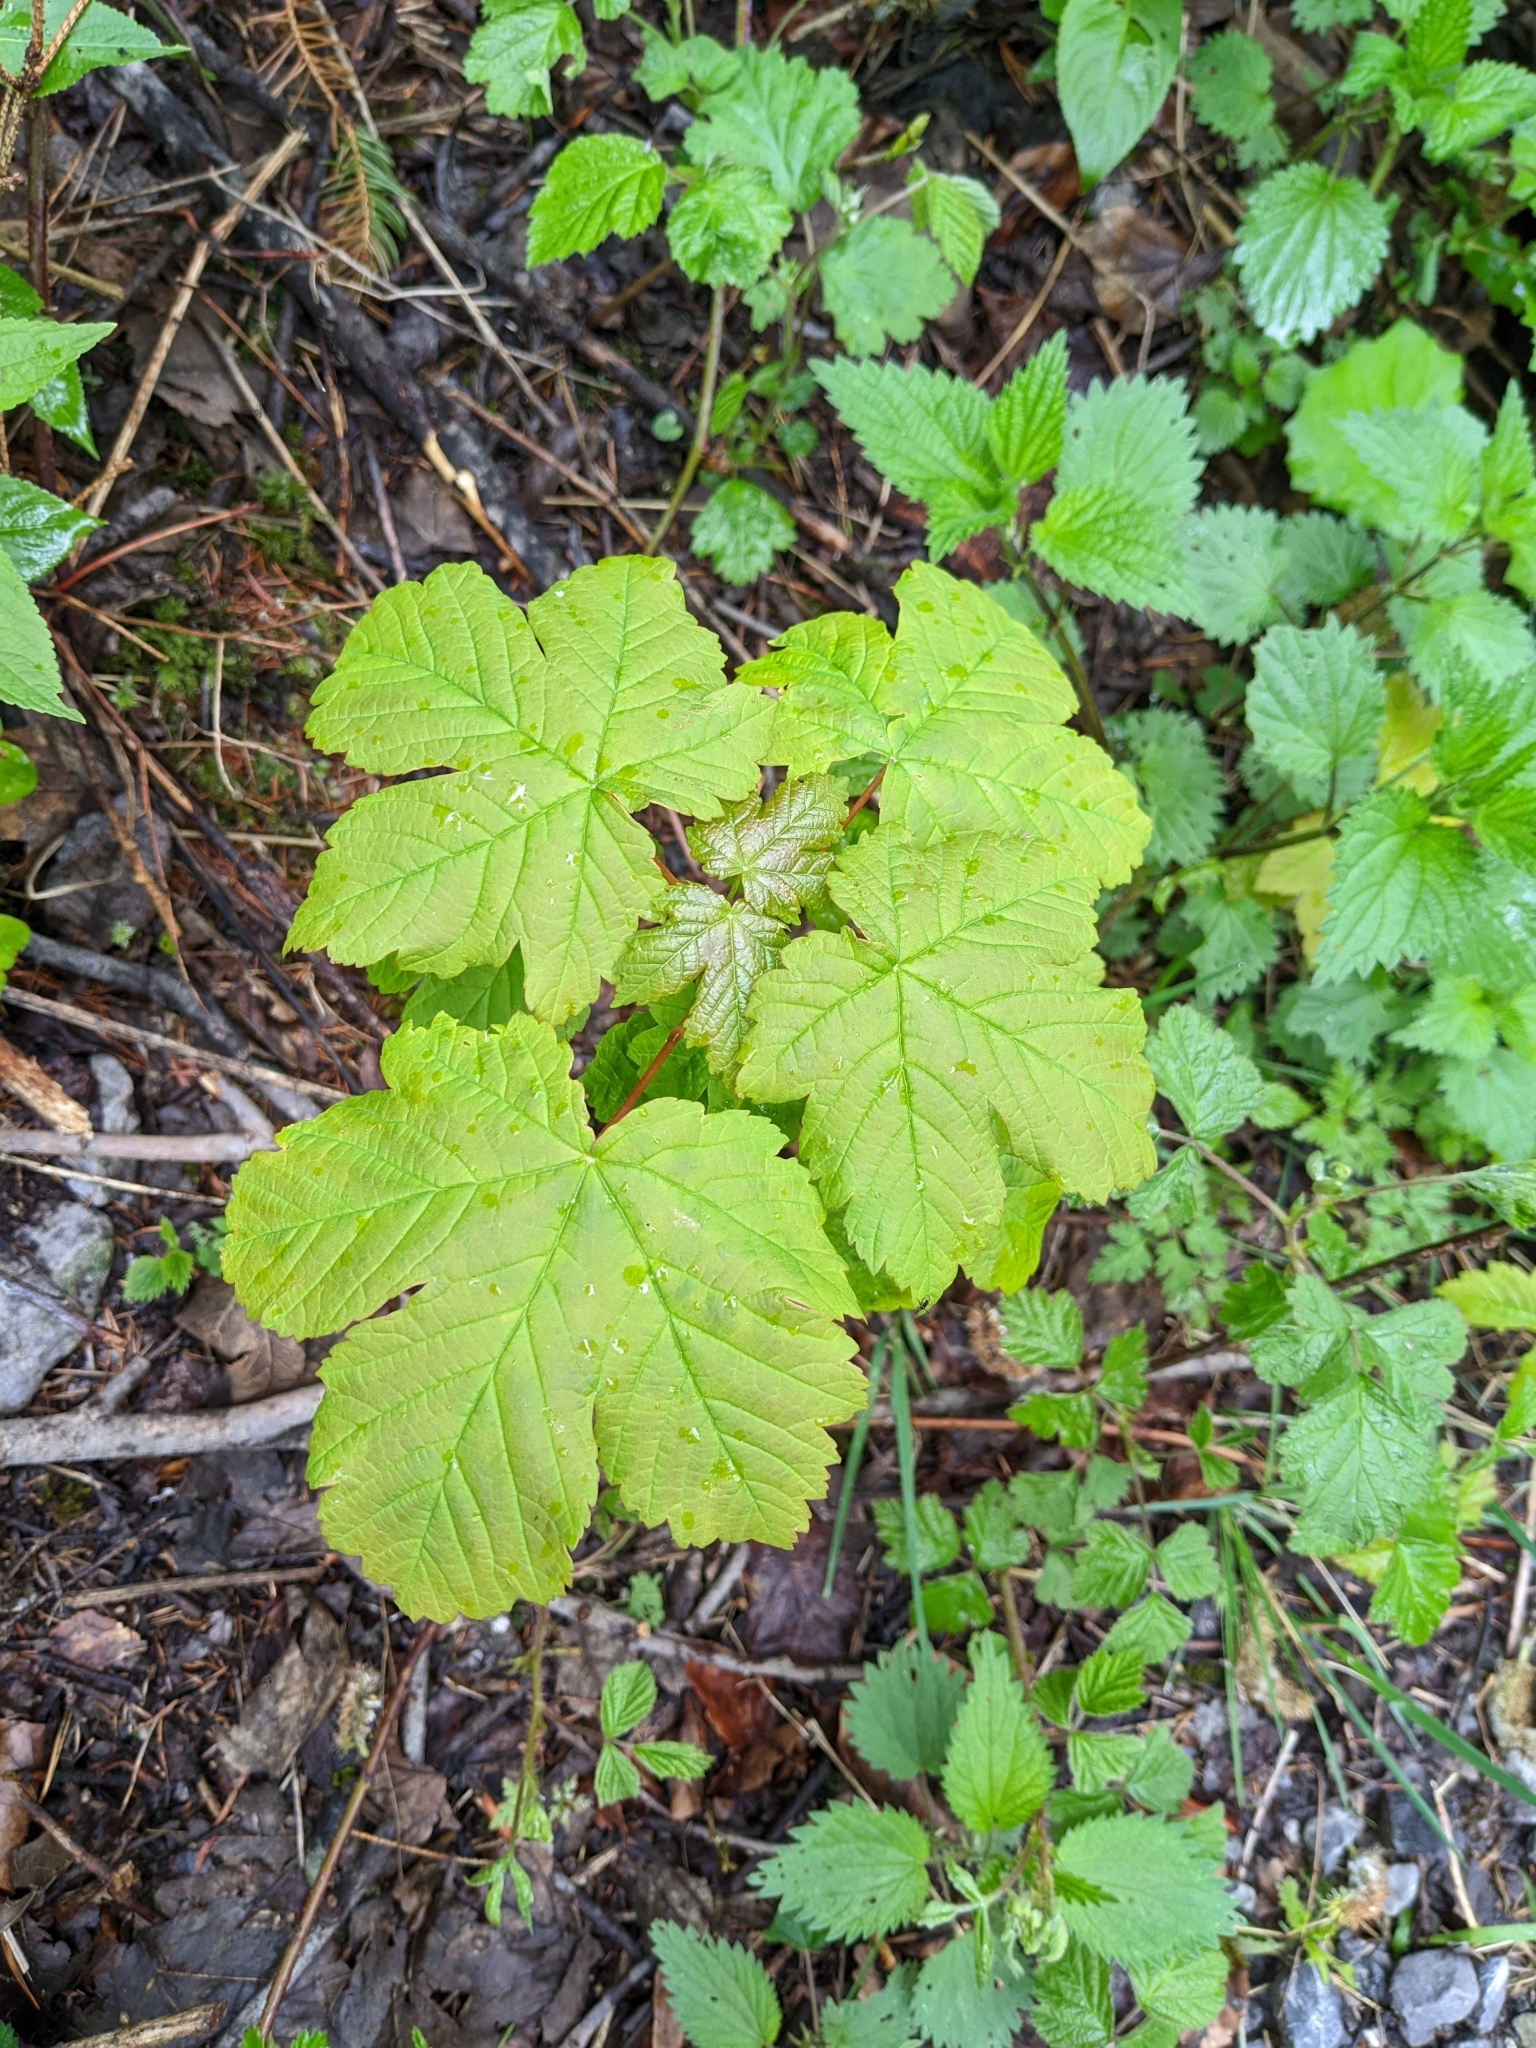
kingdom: Plantae
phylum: Tracheophyta
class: Magnoliopsida
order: Sapindales
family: Sapindaceae
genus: Acer
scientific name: Acer pseudoplatanus
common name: Sycamore
